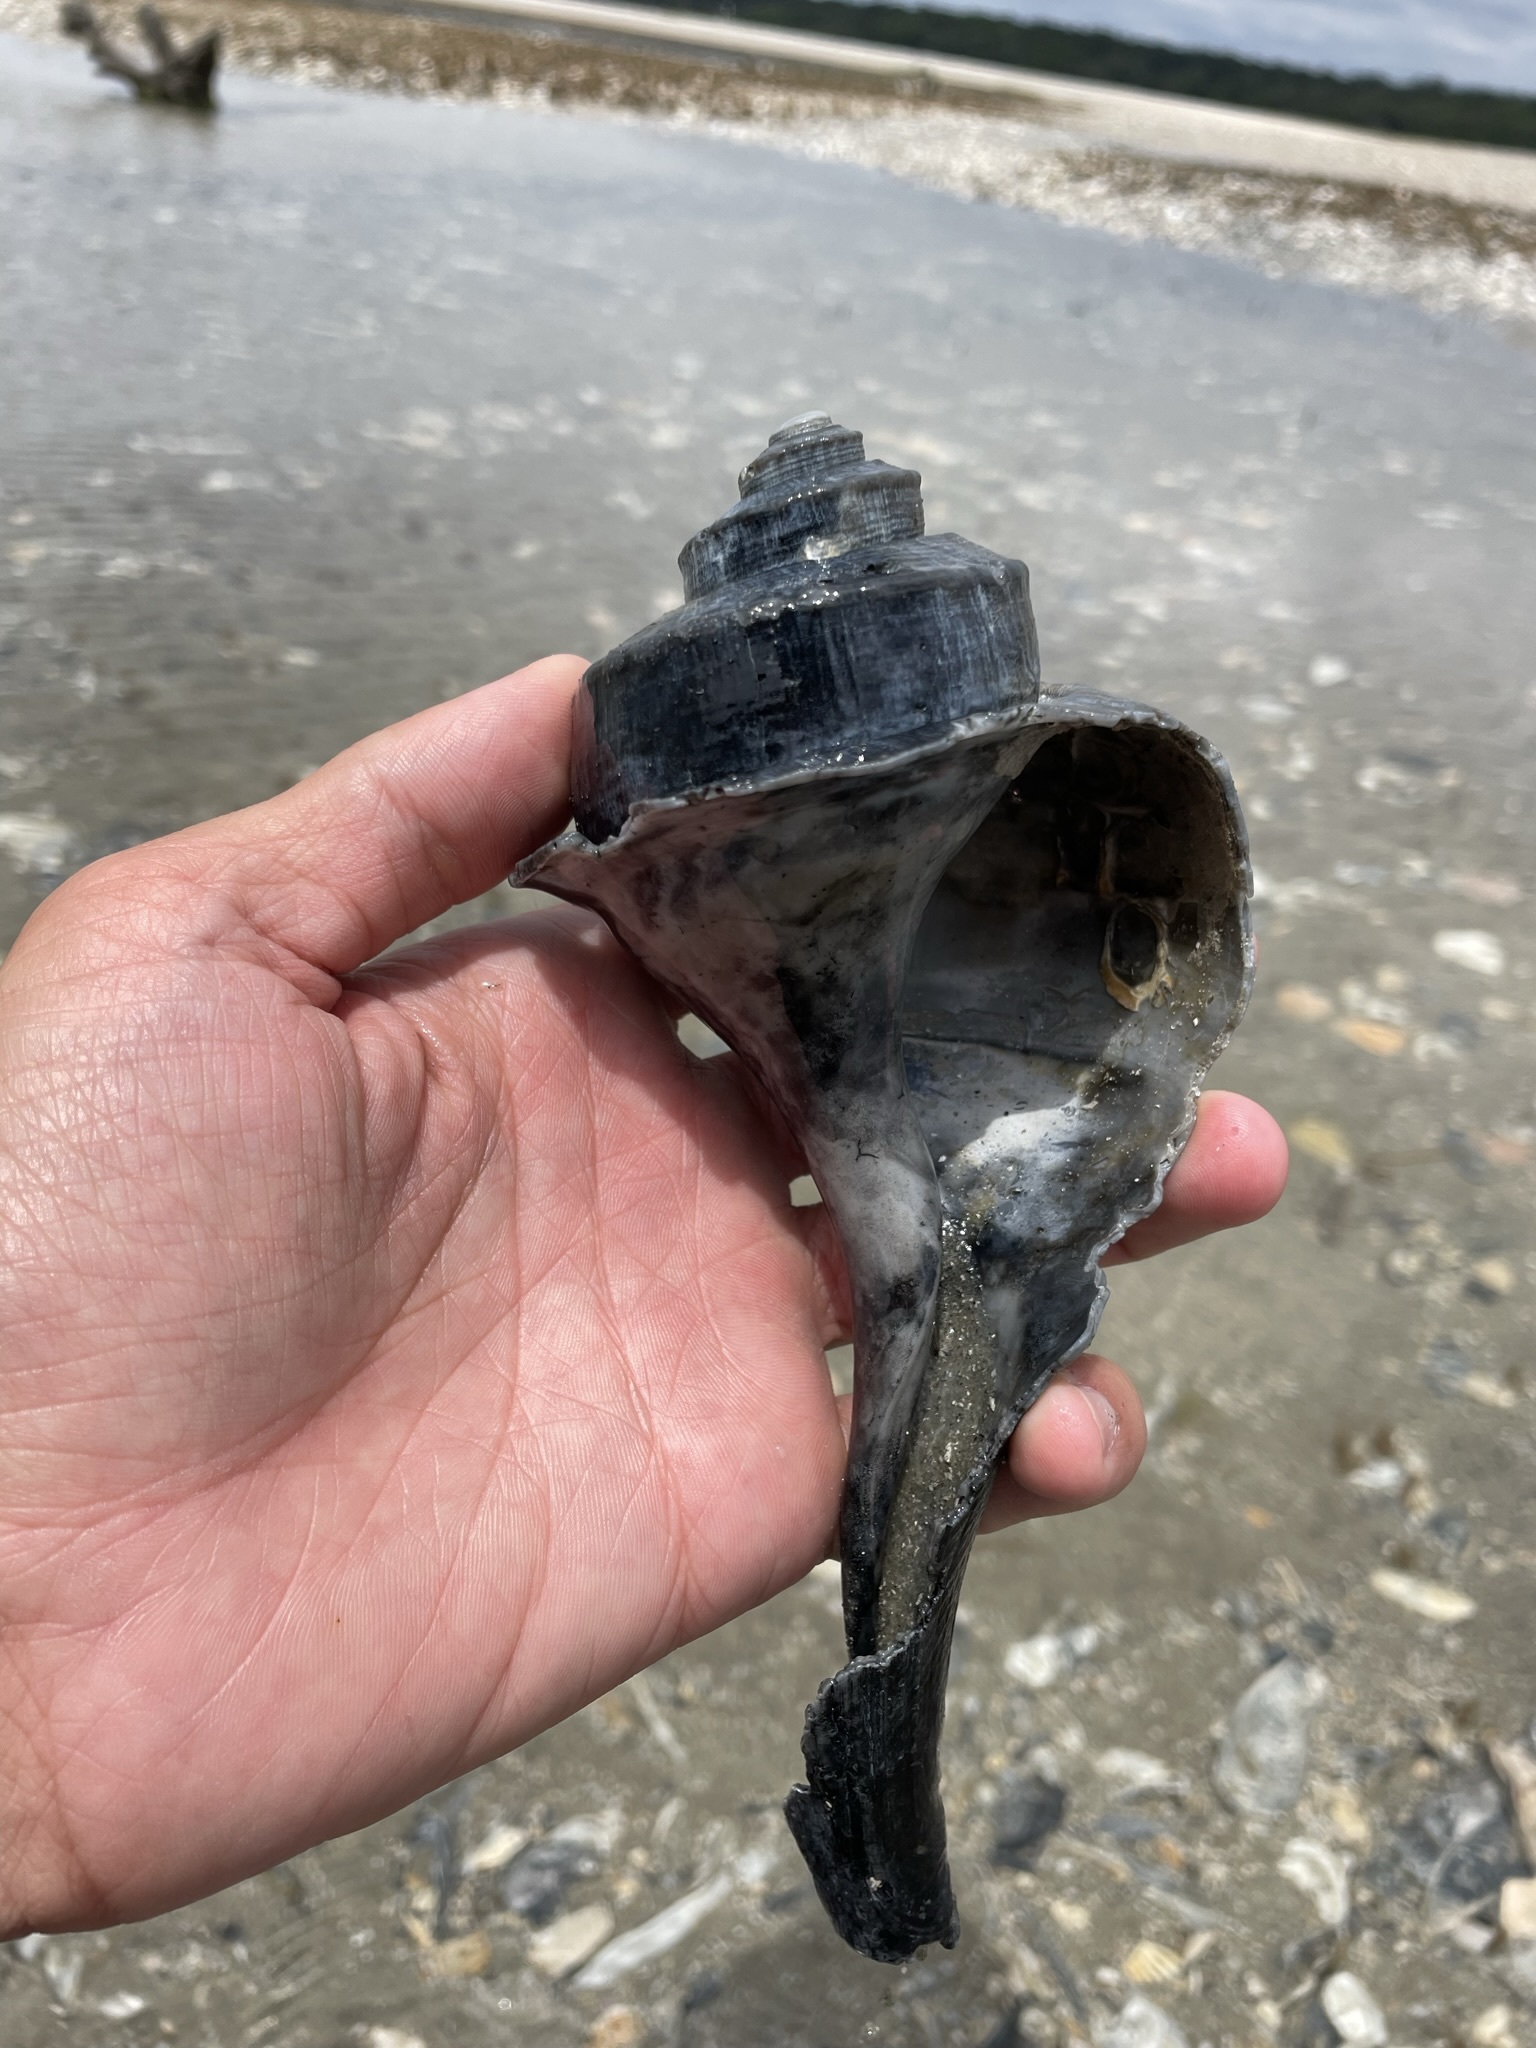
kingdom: Animalia
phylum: Mollusca
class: Gastropoda
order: Neogastropoda
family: Busyconidae
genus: Busycotypus
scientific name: Busycotypus canaliculatus
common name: Channeled whelk
